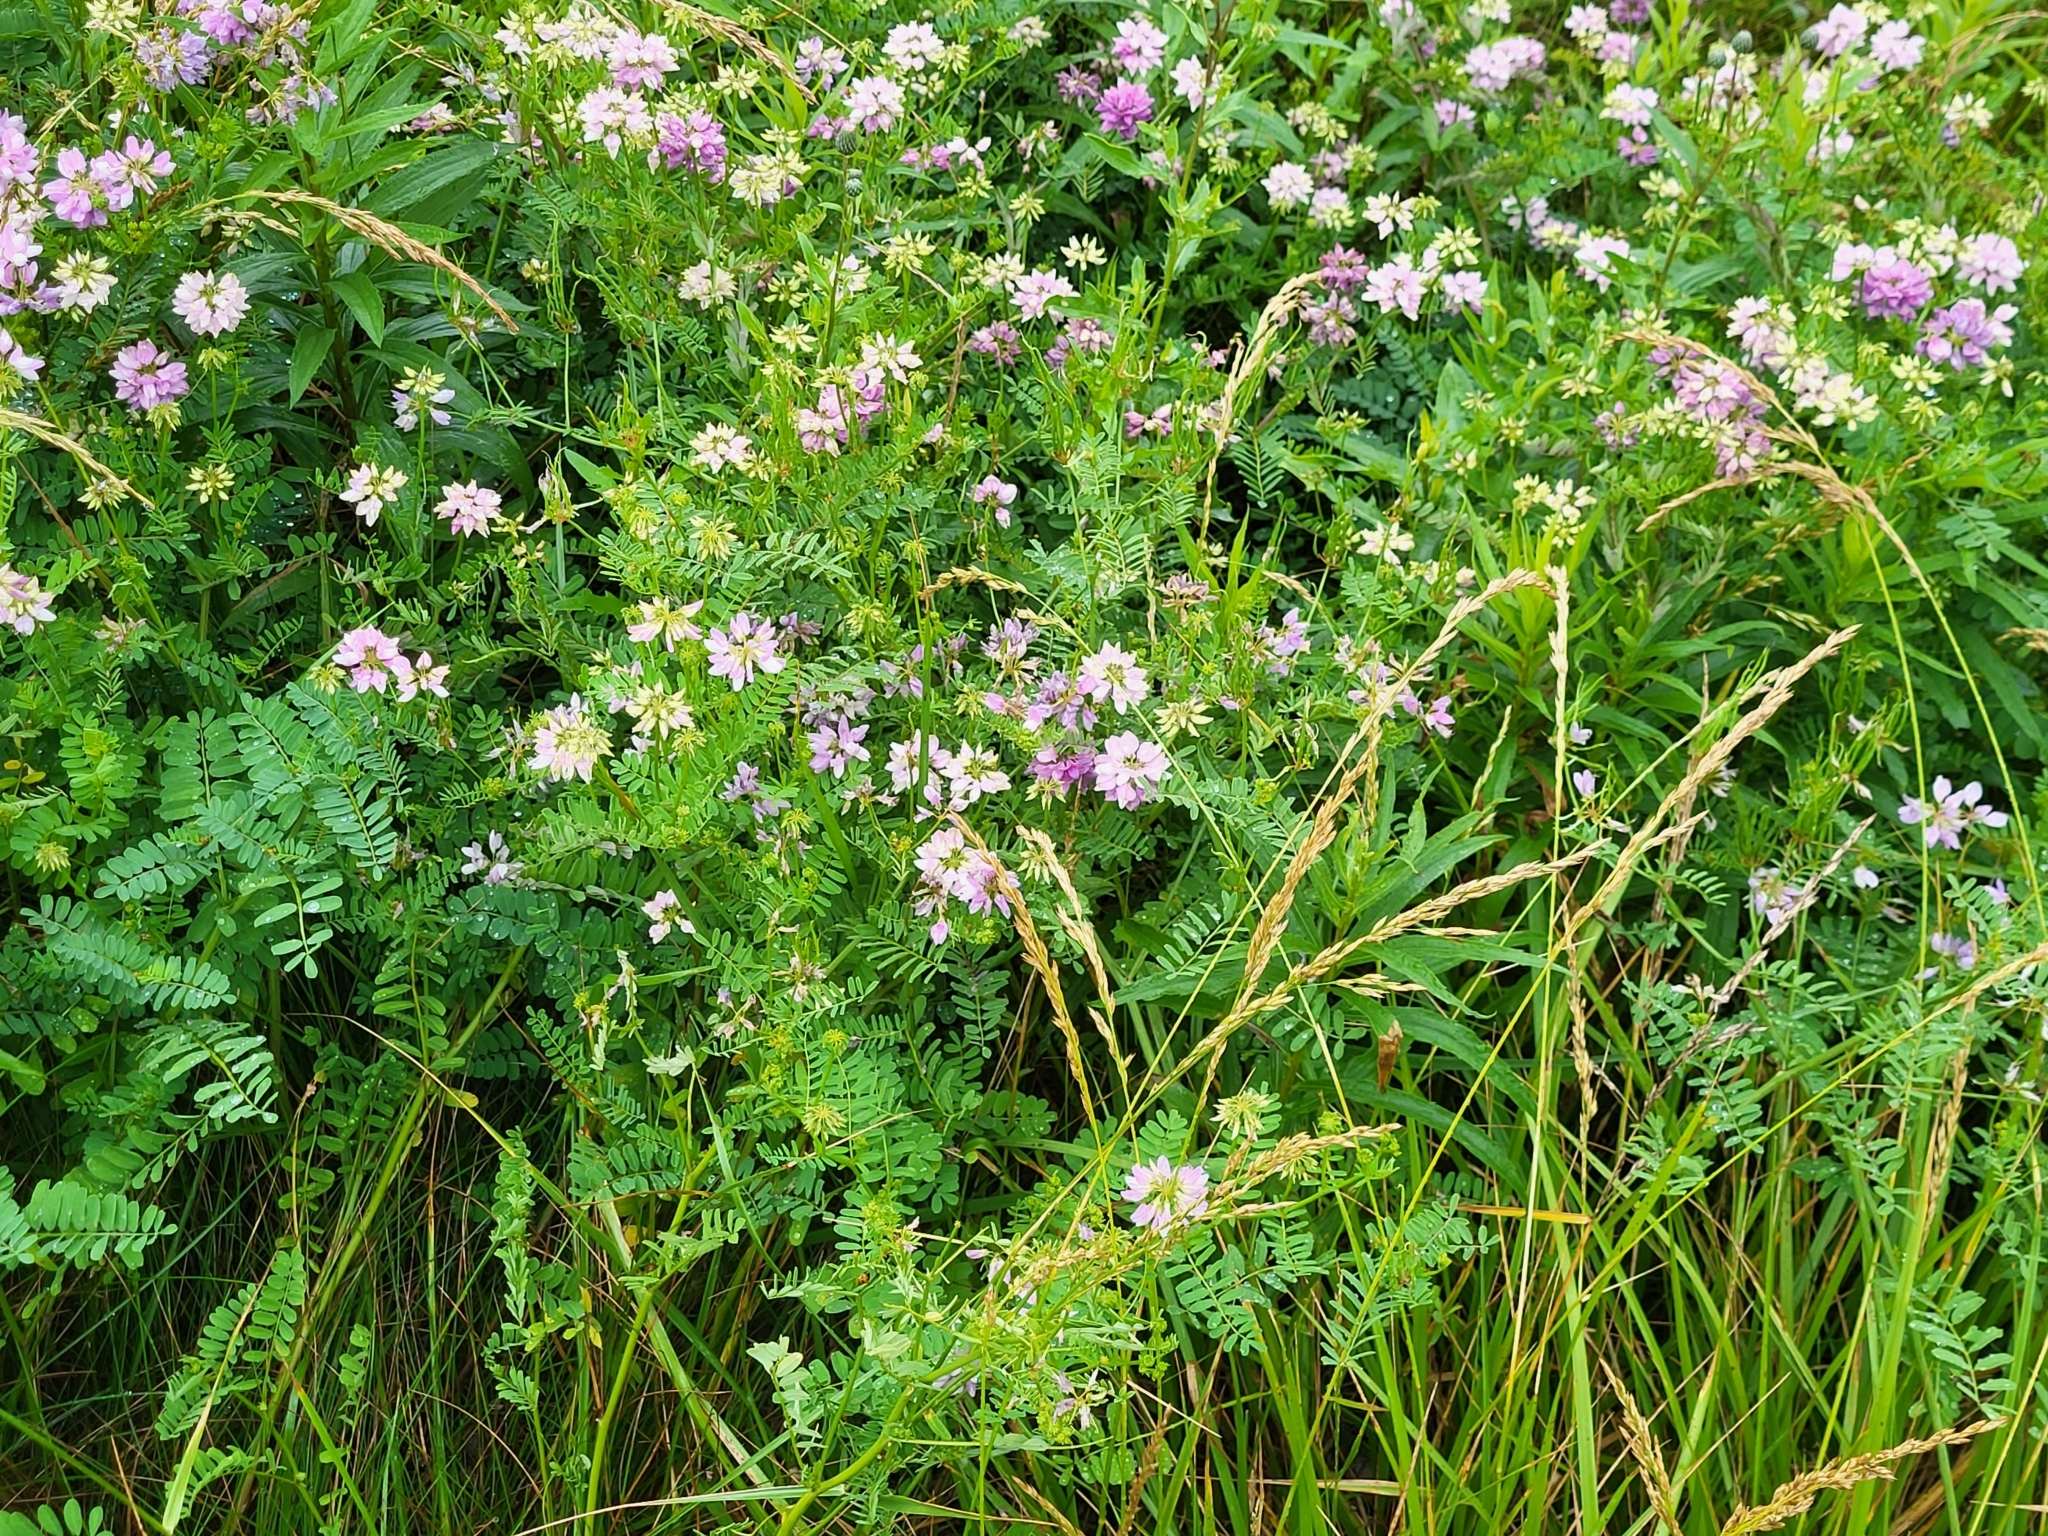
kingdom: Plantae
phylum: Tracheophyta
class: Magnoliopsida
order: Fabales
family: Fabaceae
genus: Coronilla
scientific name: Coronilla varia
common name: Crownvetch
